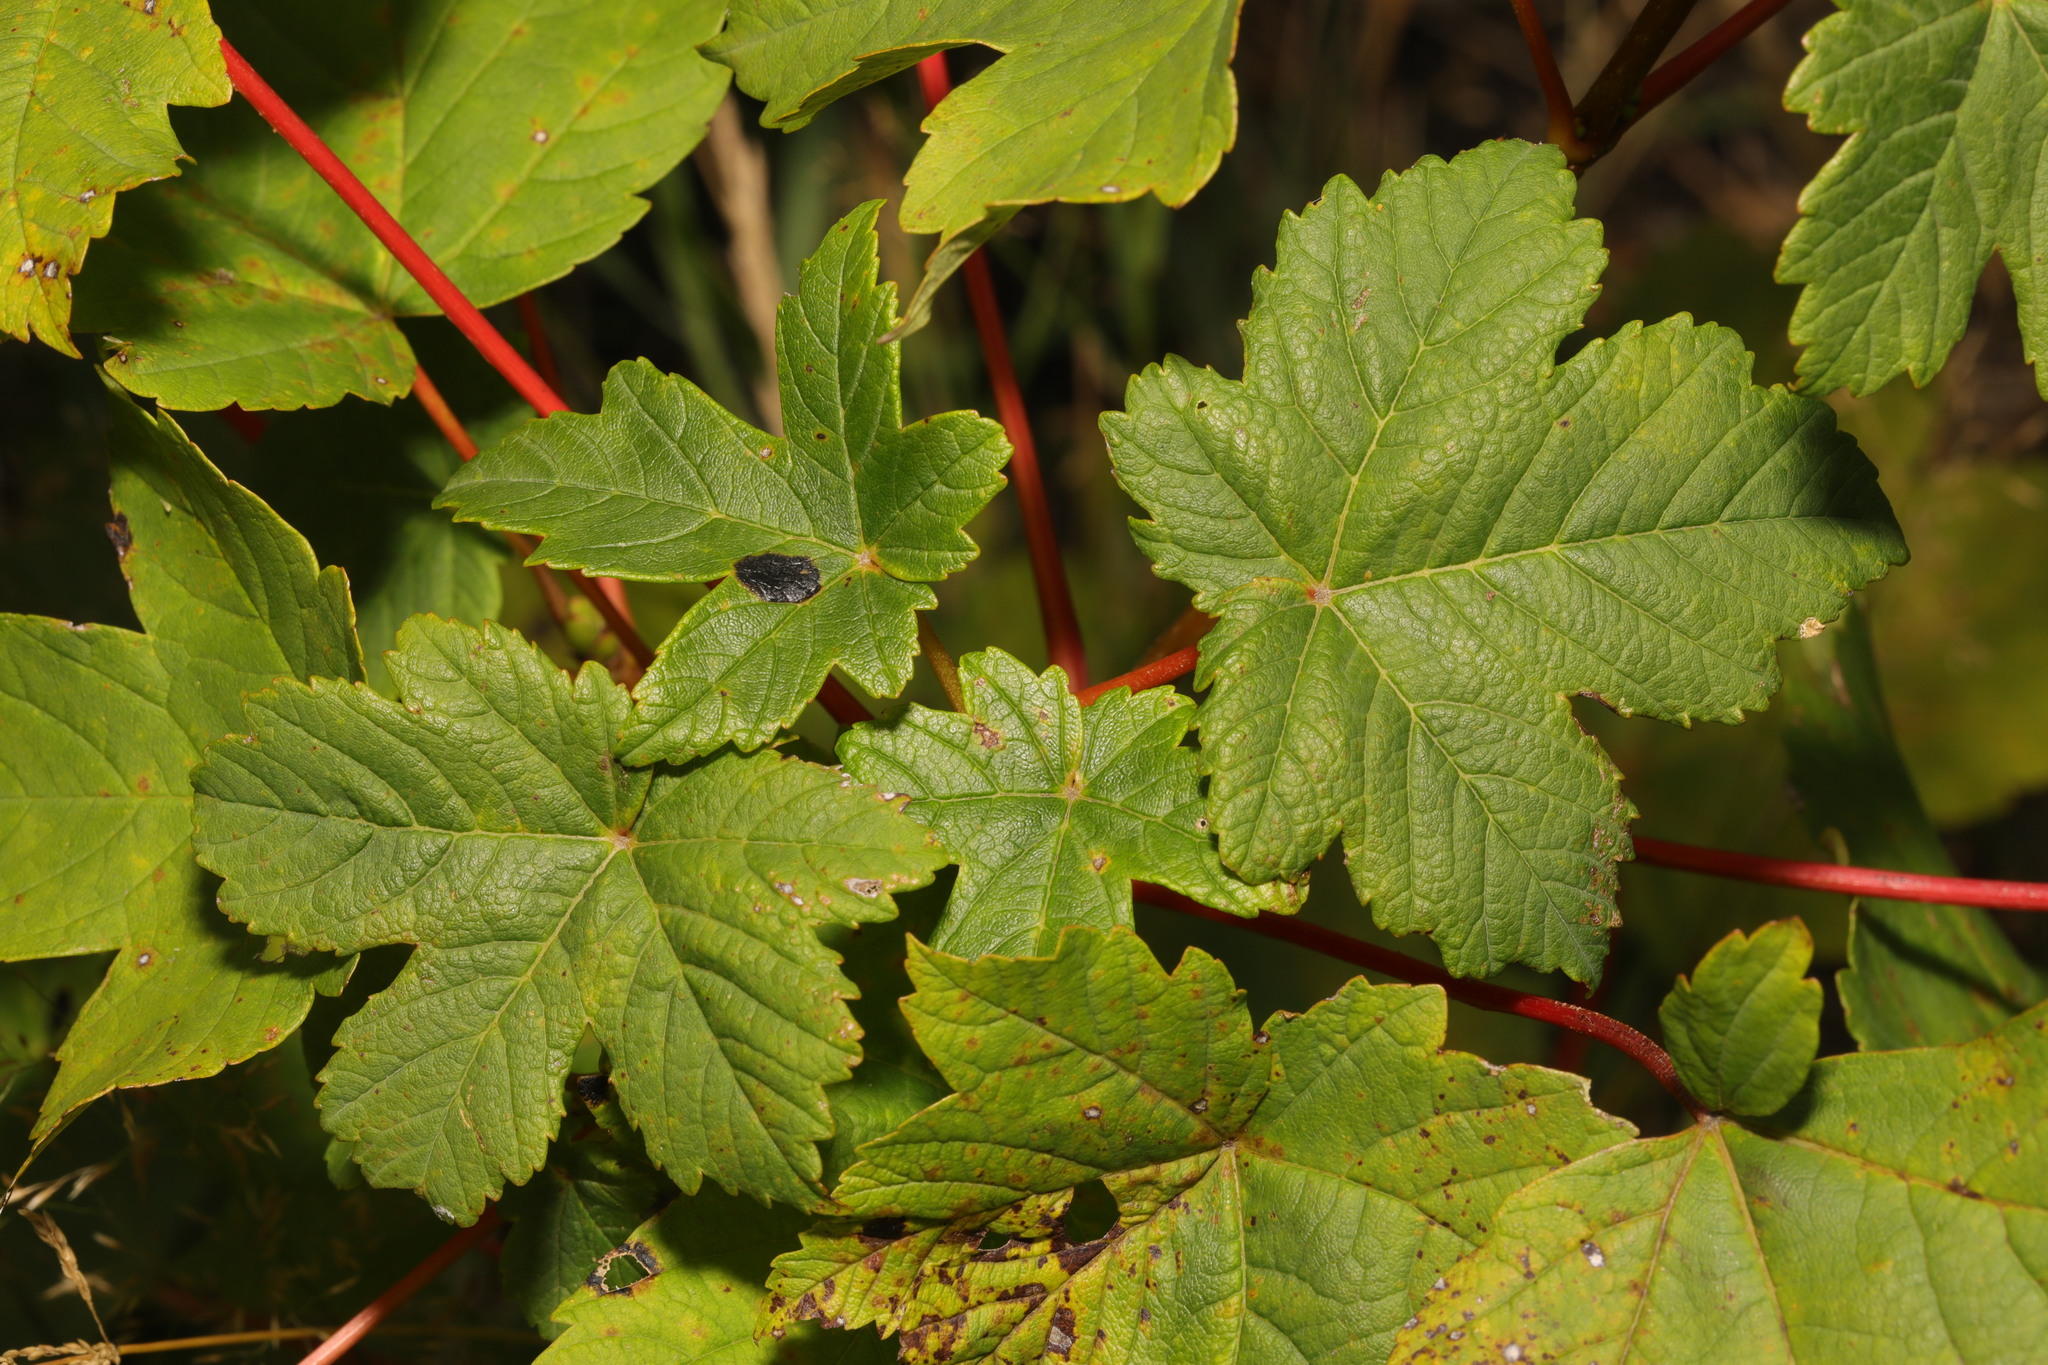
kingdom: Plantae
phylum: Tracheophyta
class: Magnoliopsida
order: Sapindales
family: Sapindaceae
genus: Acer
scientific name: Acer pseudoplatanus
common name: Sycamore
